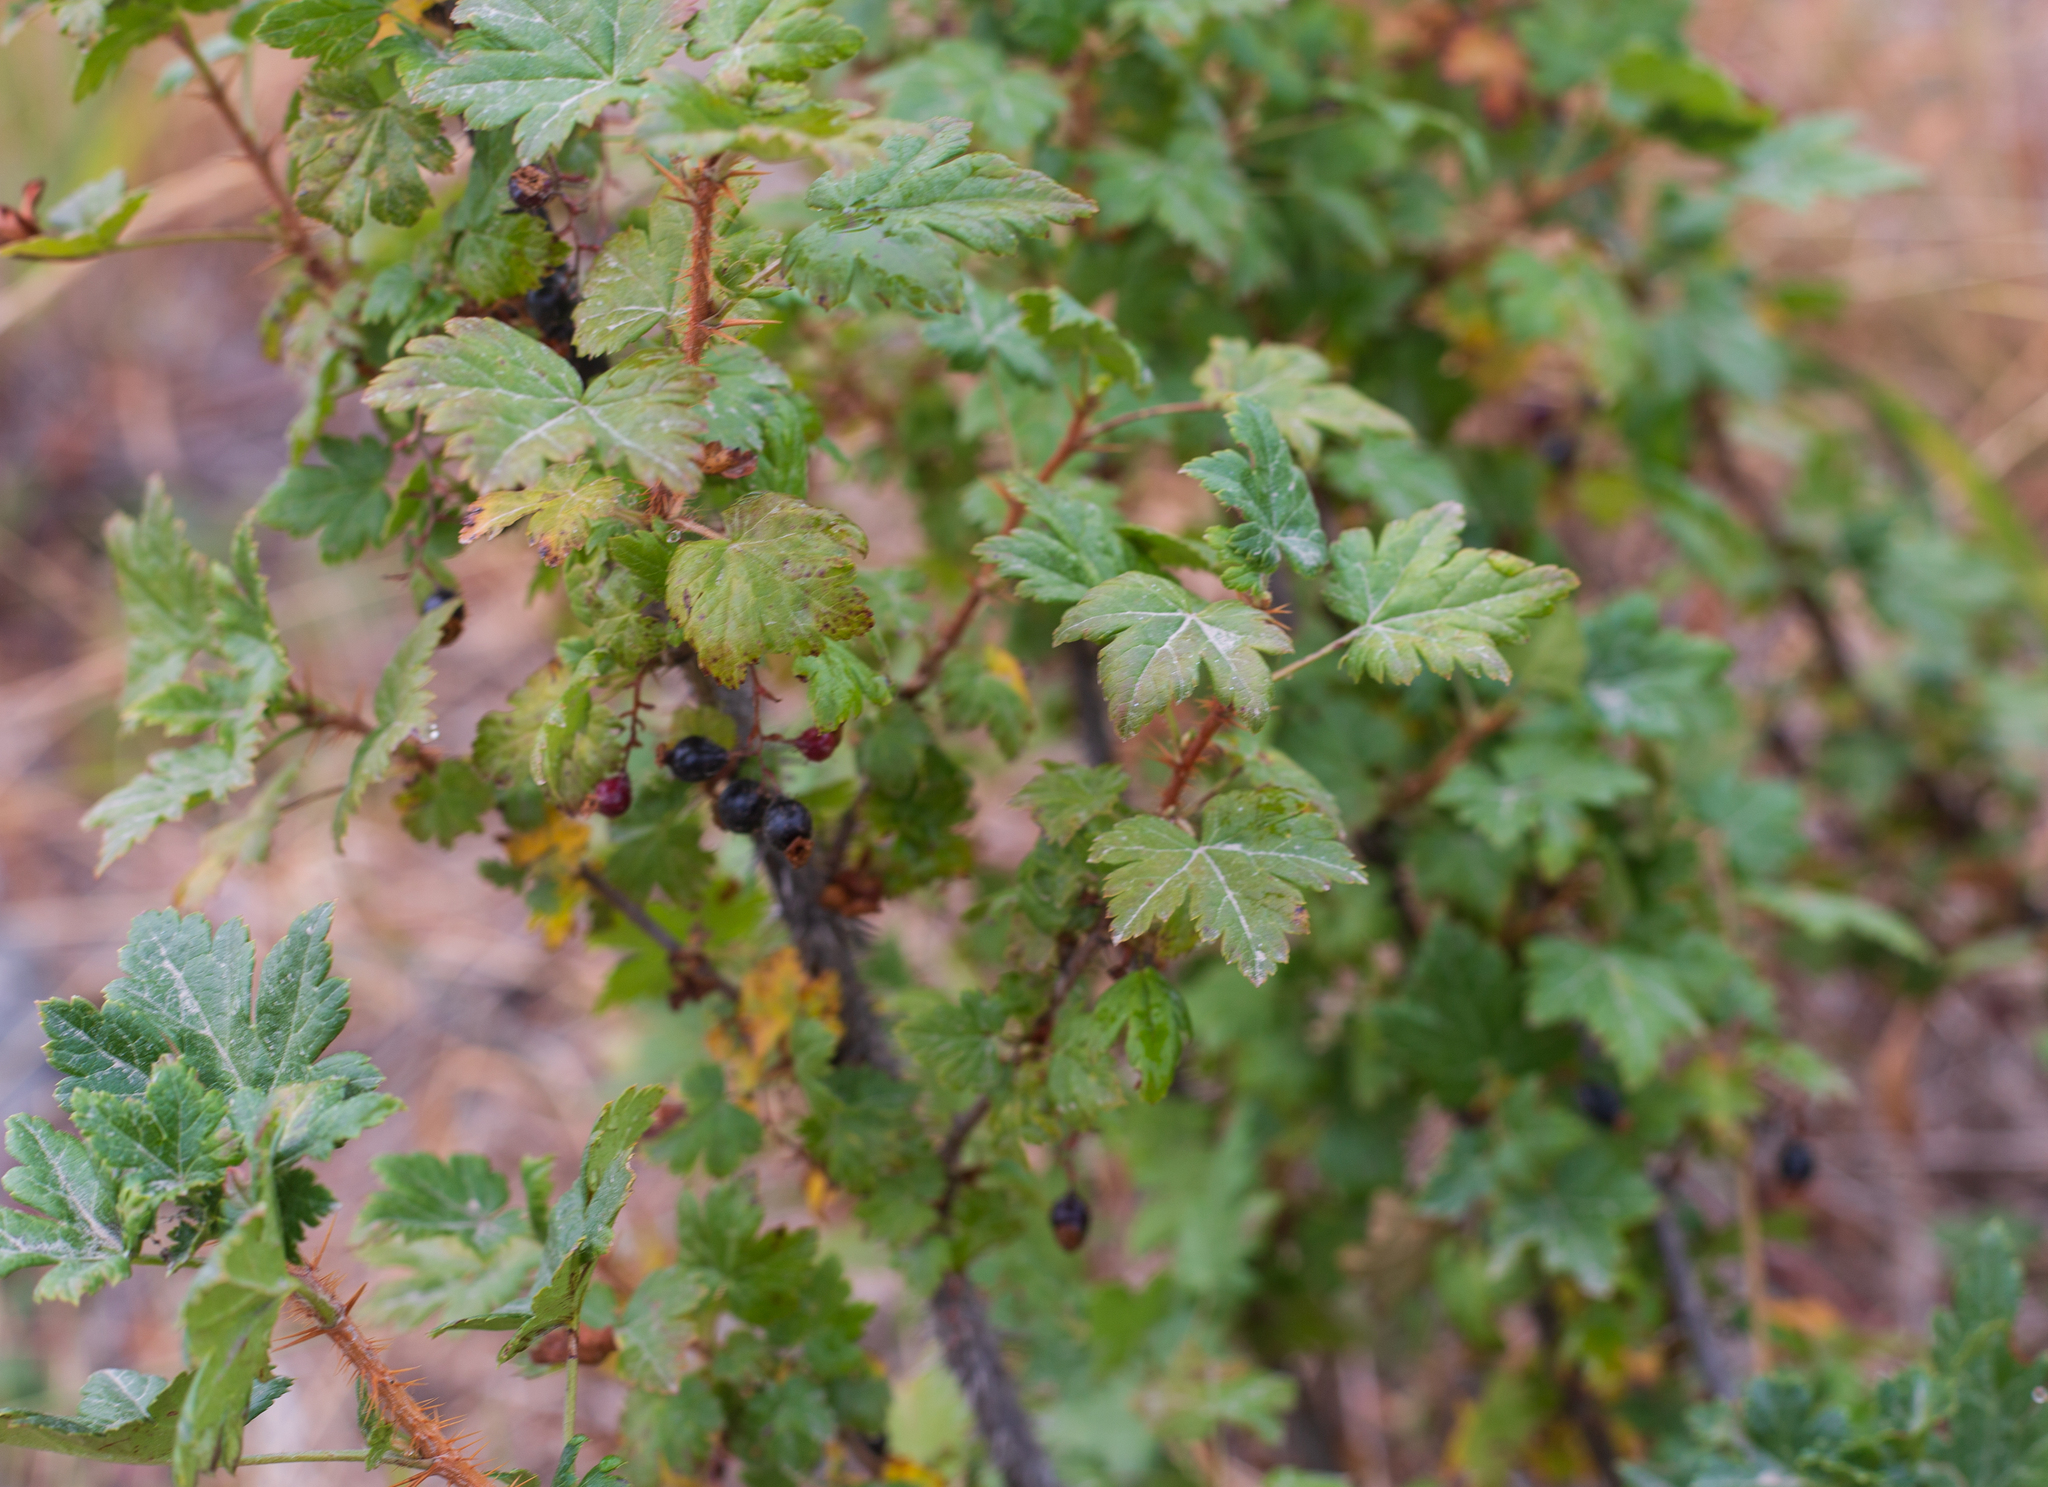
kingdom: Plantae
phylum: Tracheophyta
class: Magnoliopsida
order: Saxifragales
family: Grossulariaceae
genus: Ribes
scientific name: Ribes lacustre
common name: Black gooseberry
